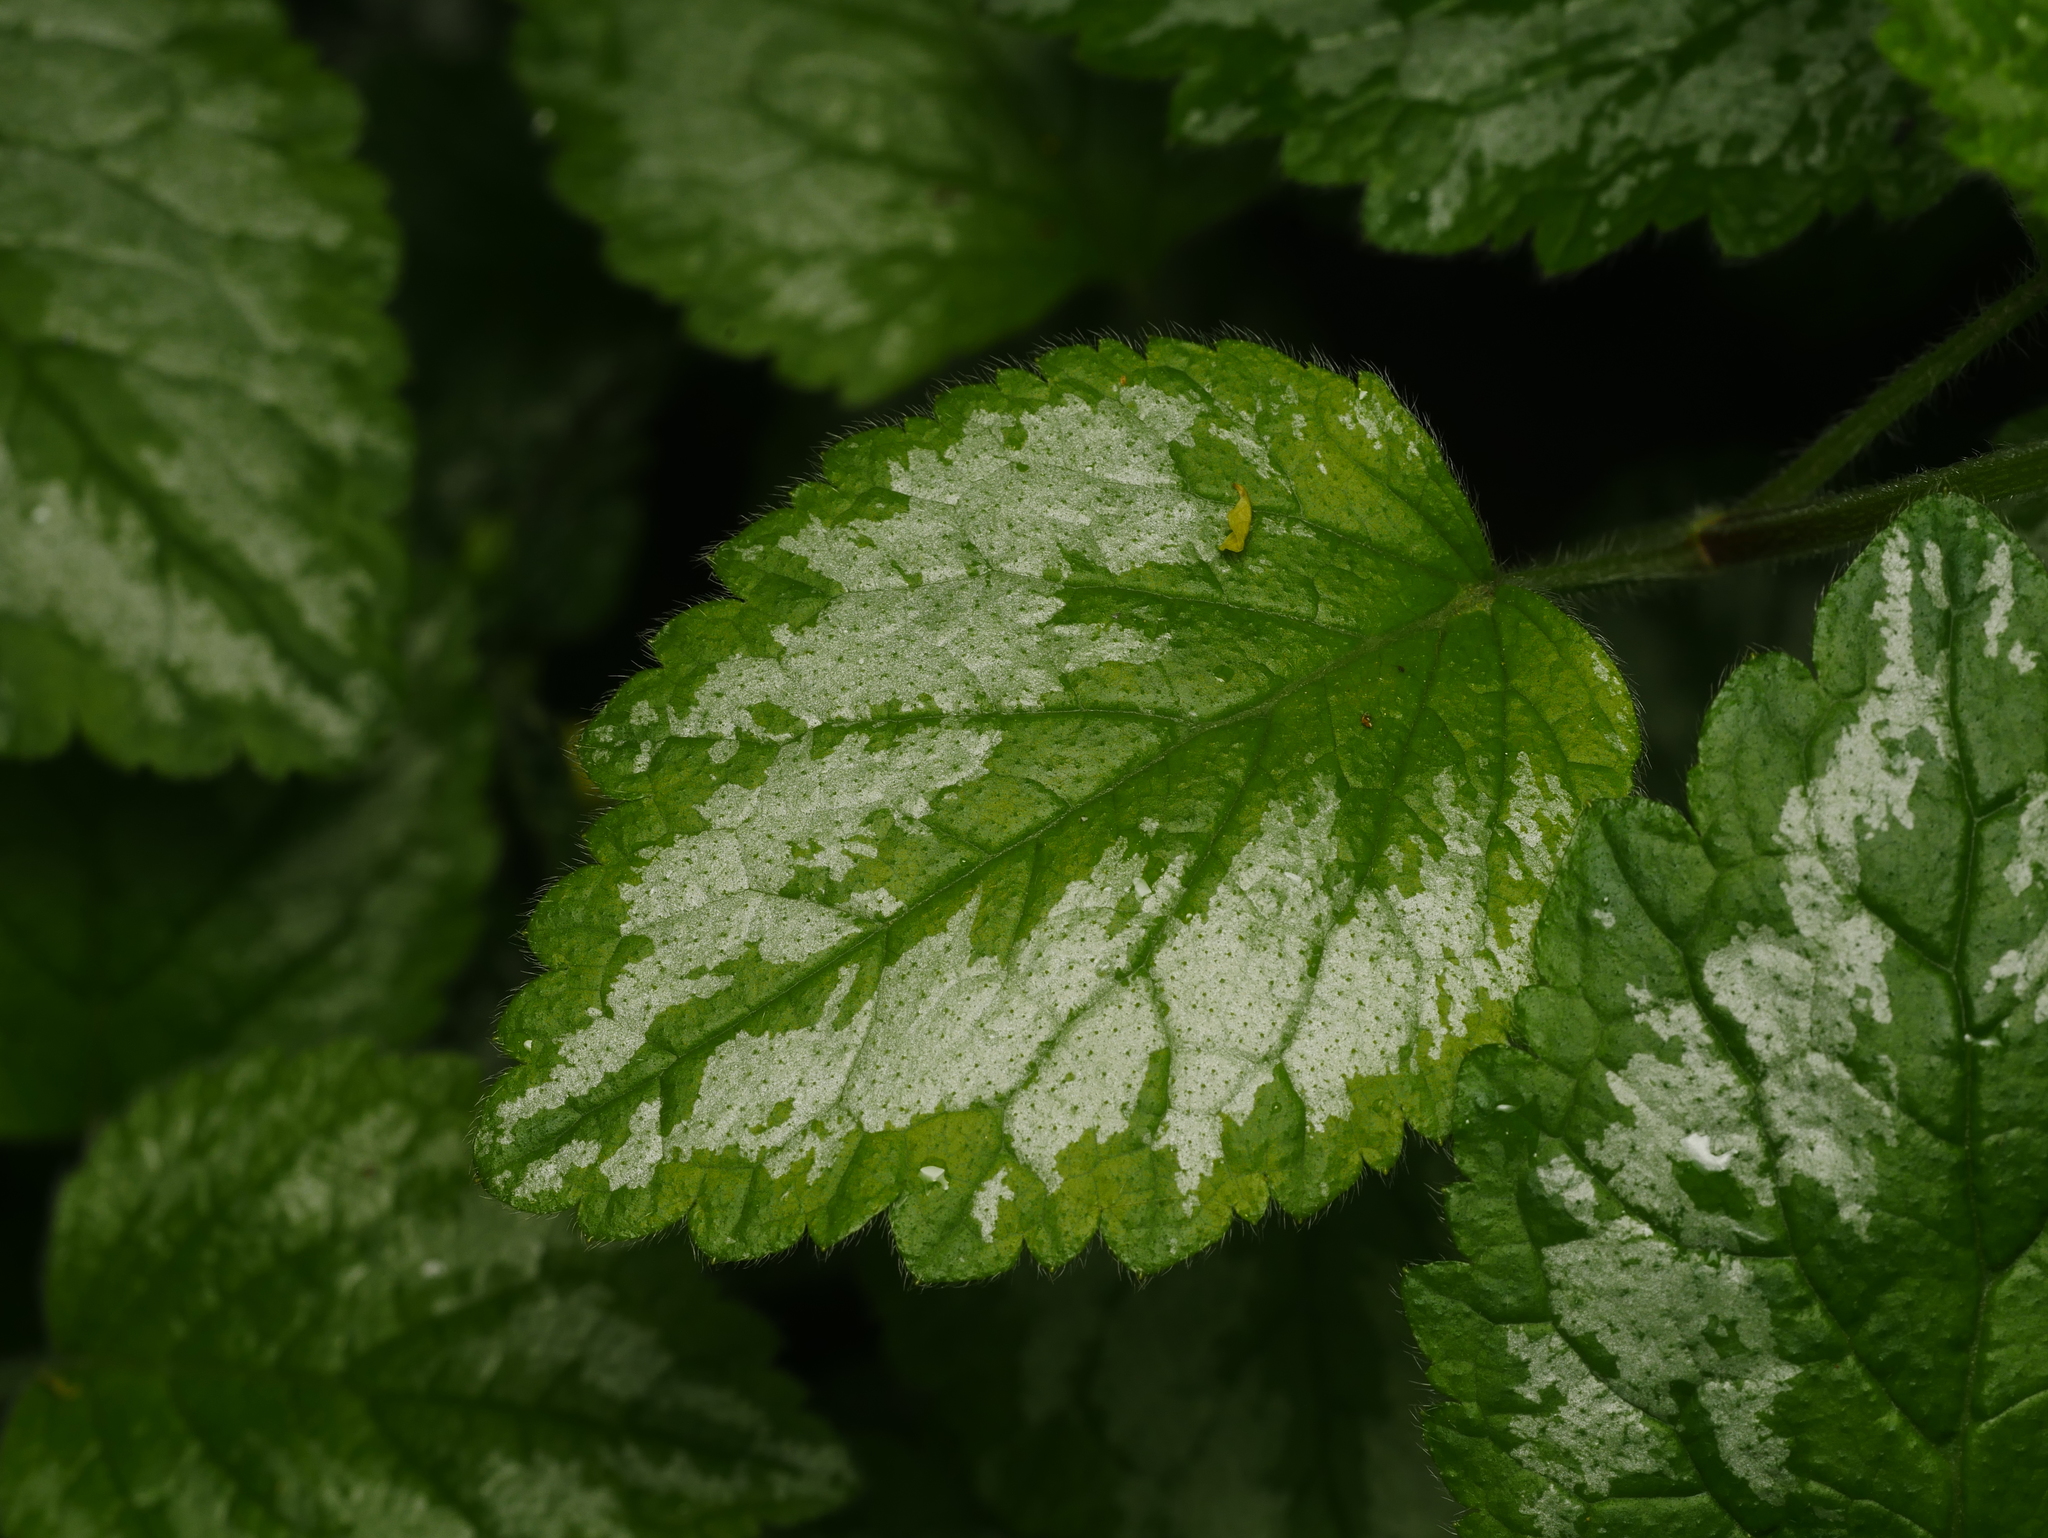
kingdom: Plantae
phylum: Tracheophyta
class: Magnoliopsida
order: Lamiales
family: Lamiaceae
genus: Lamium
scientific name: Lamium galeobdolon
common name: Yellow archangel
